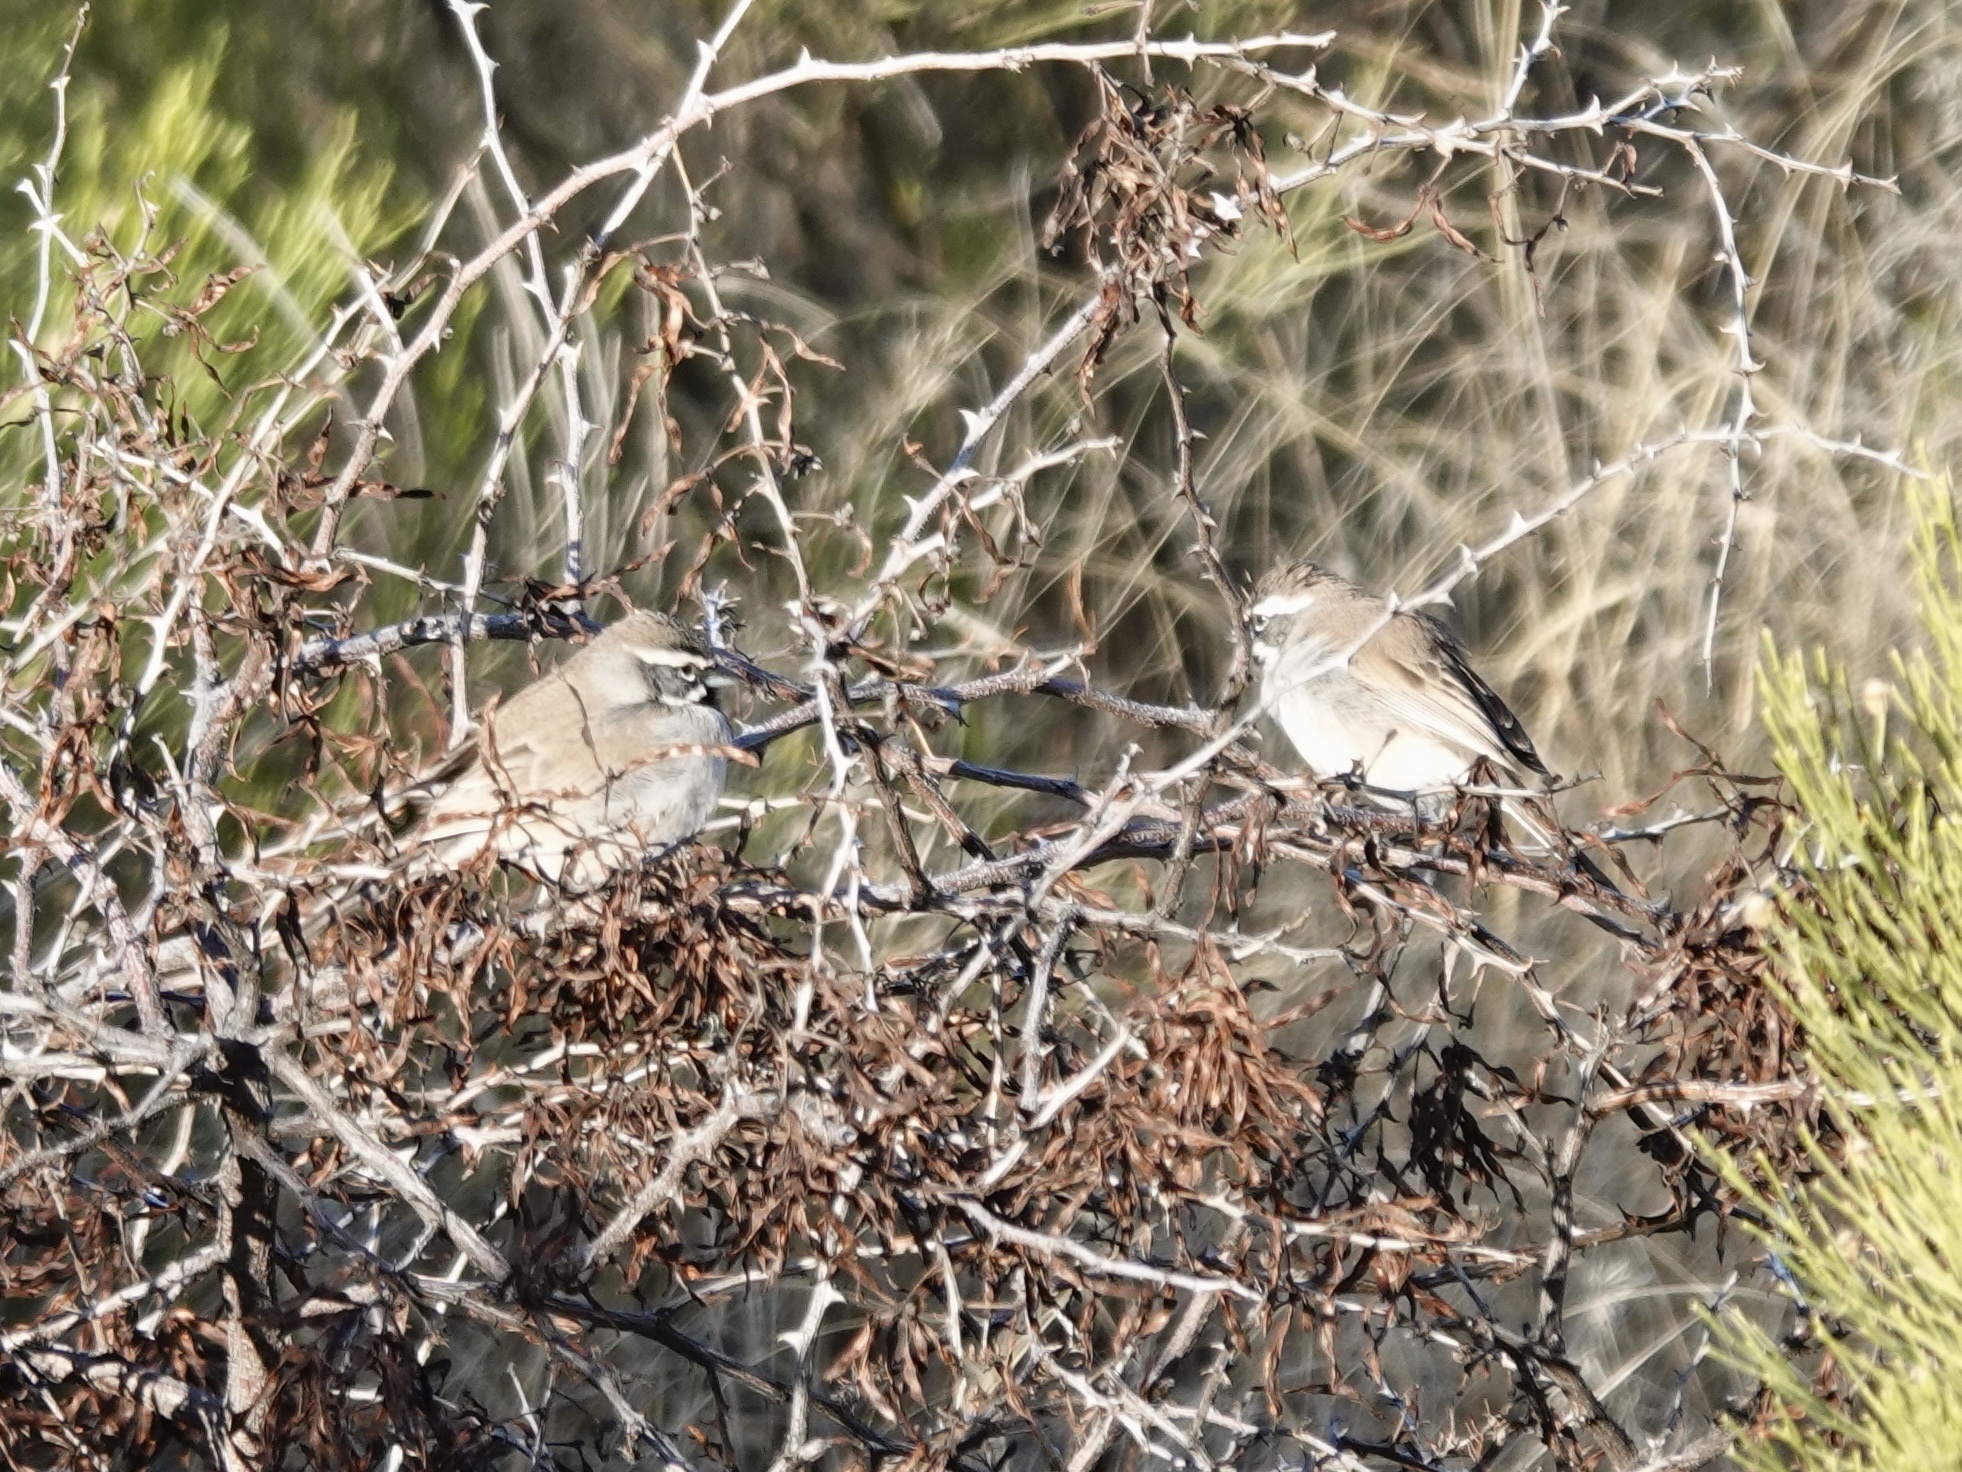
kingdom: Animalia
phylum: Chordata
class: Aves
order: Passeriformes
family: Passerellidae
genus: Amphispiza
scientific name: Amphispiza bilineata
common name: Black-throated sparrow
